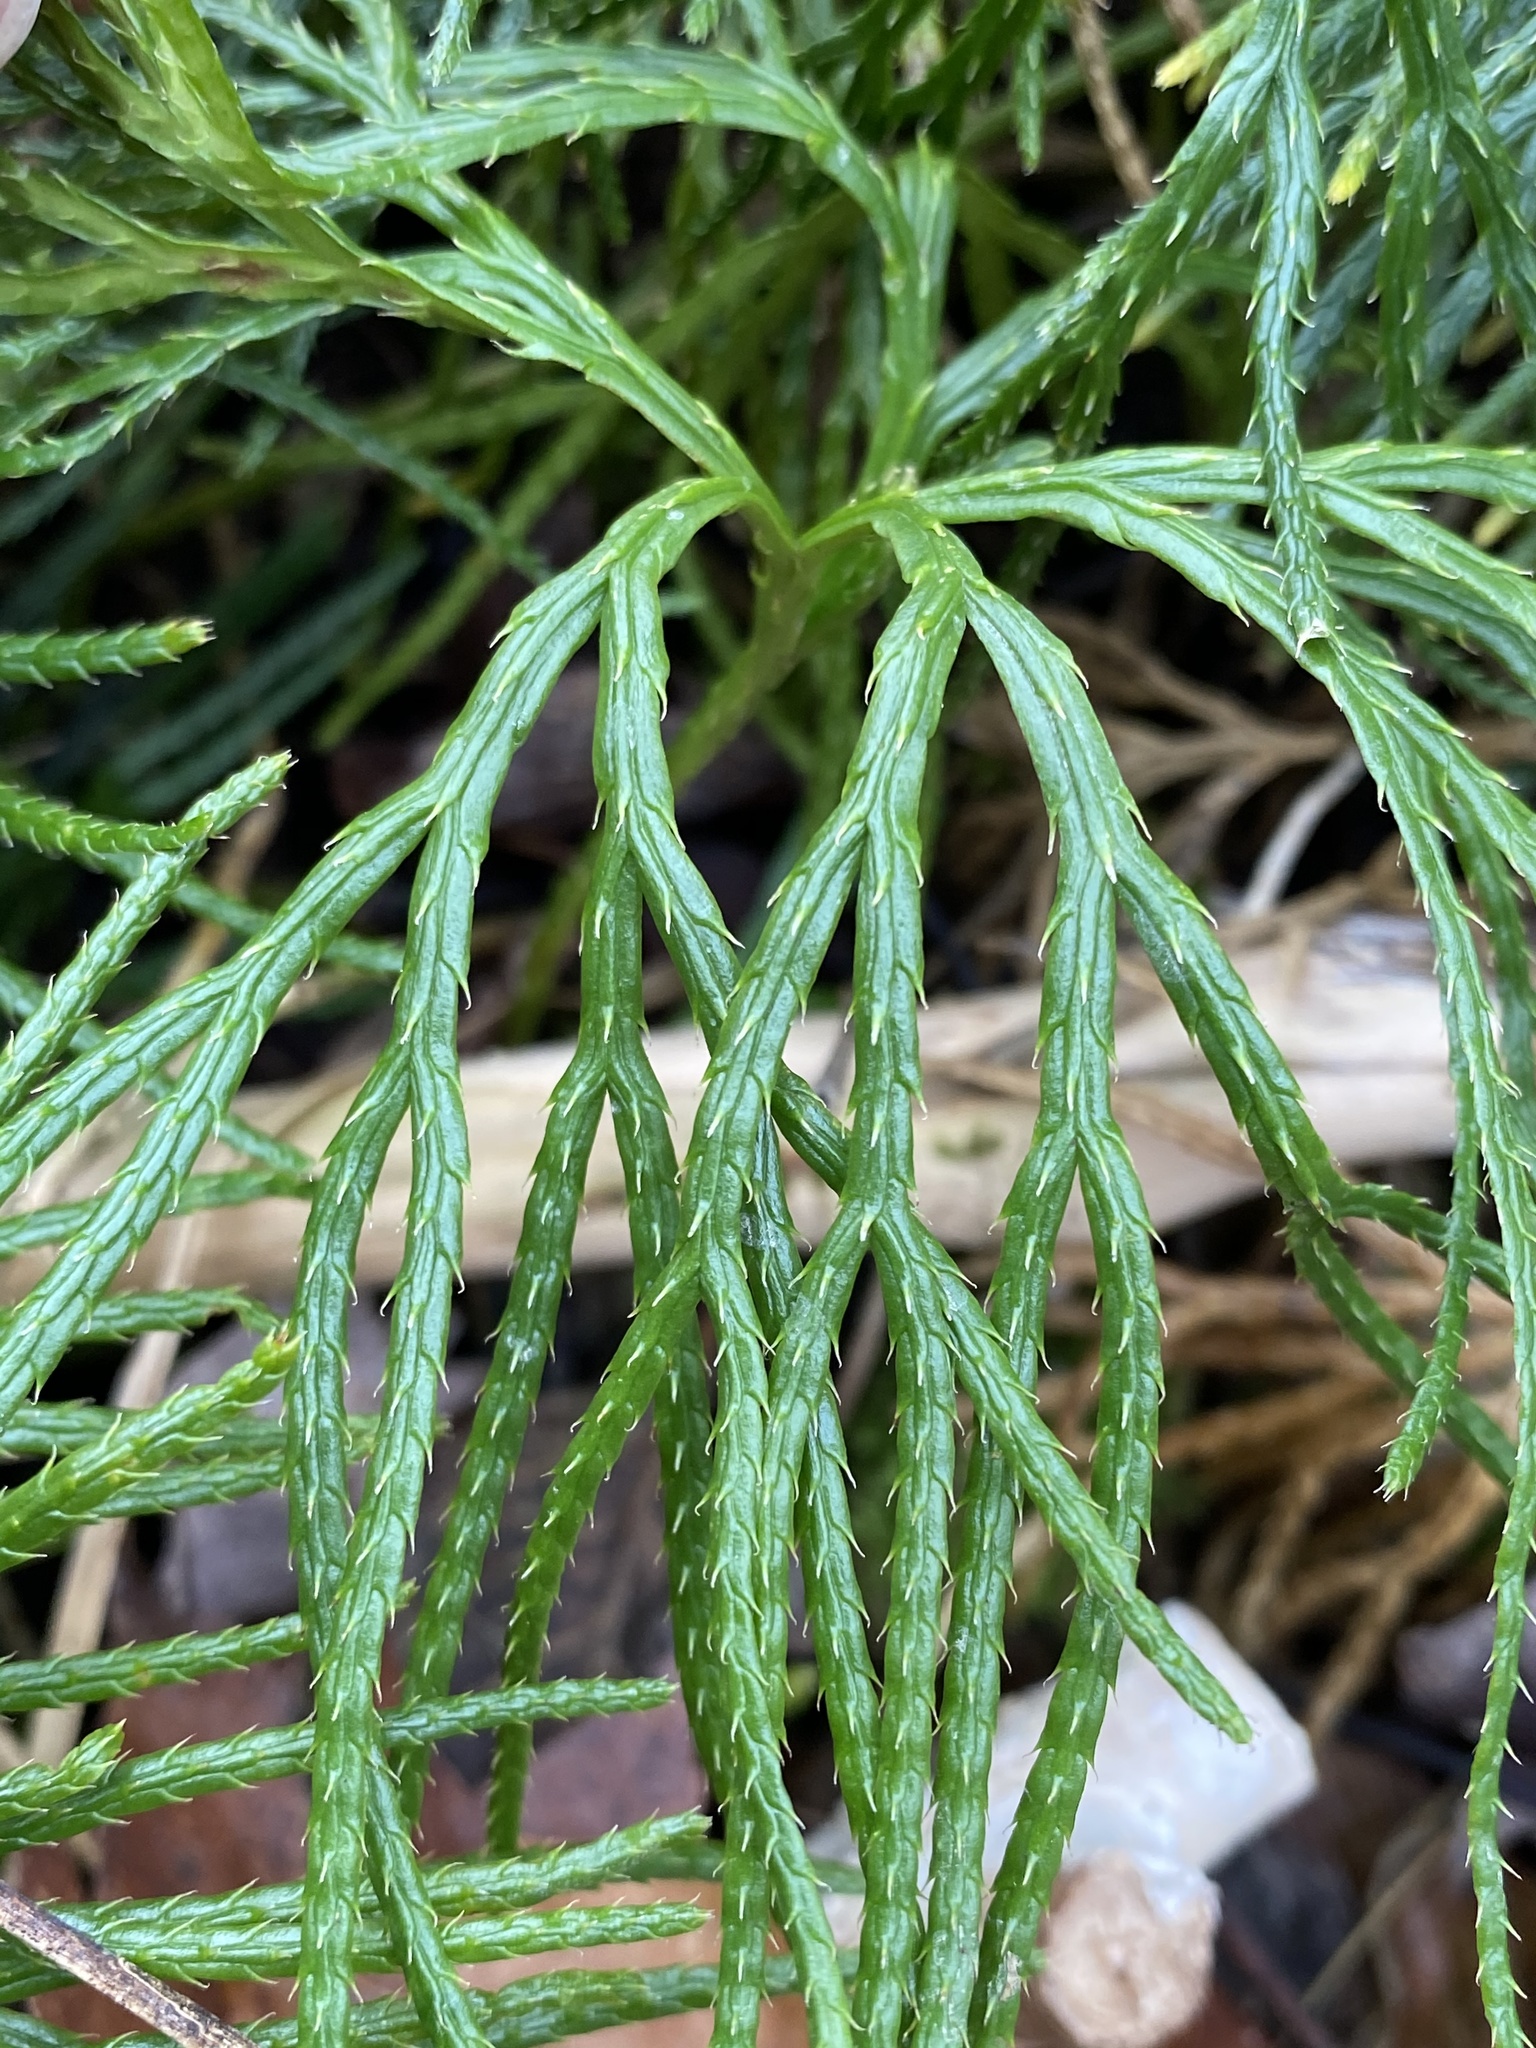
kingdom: Plantae
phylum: Tracheophyta
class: Lycopodiopsida
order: Lycopodiales
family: Lycopodiaceae
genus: Diphasiastrum
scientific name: Diphasiastrum digitatum
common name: Southern running-pine
